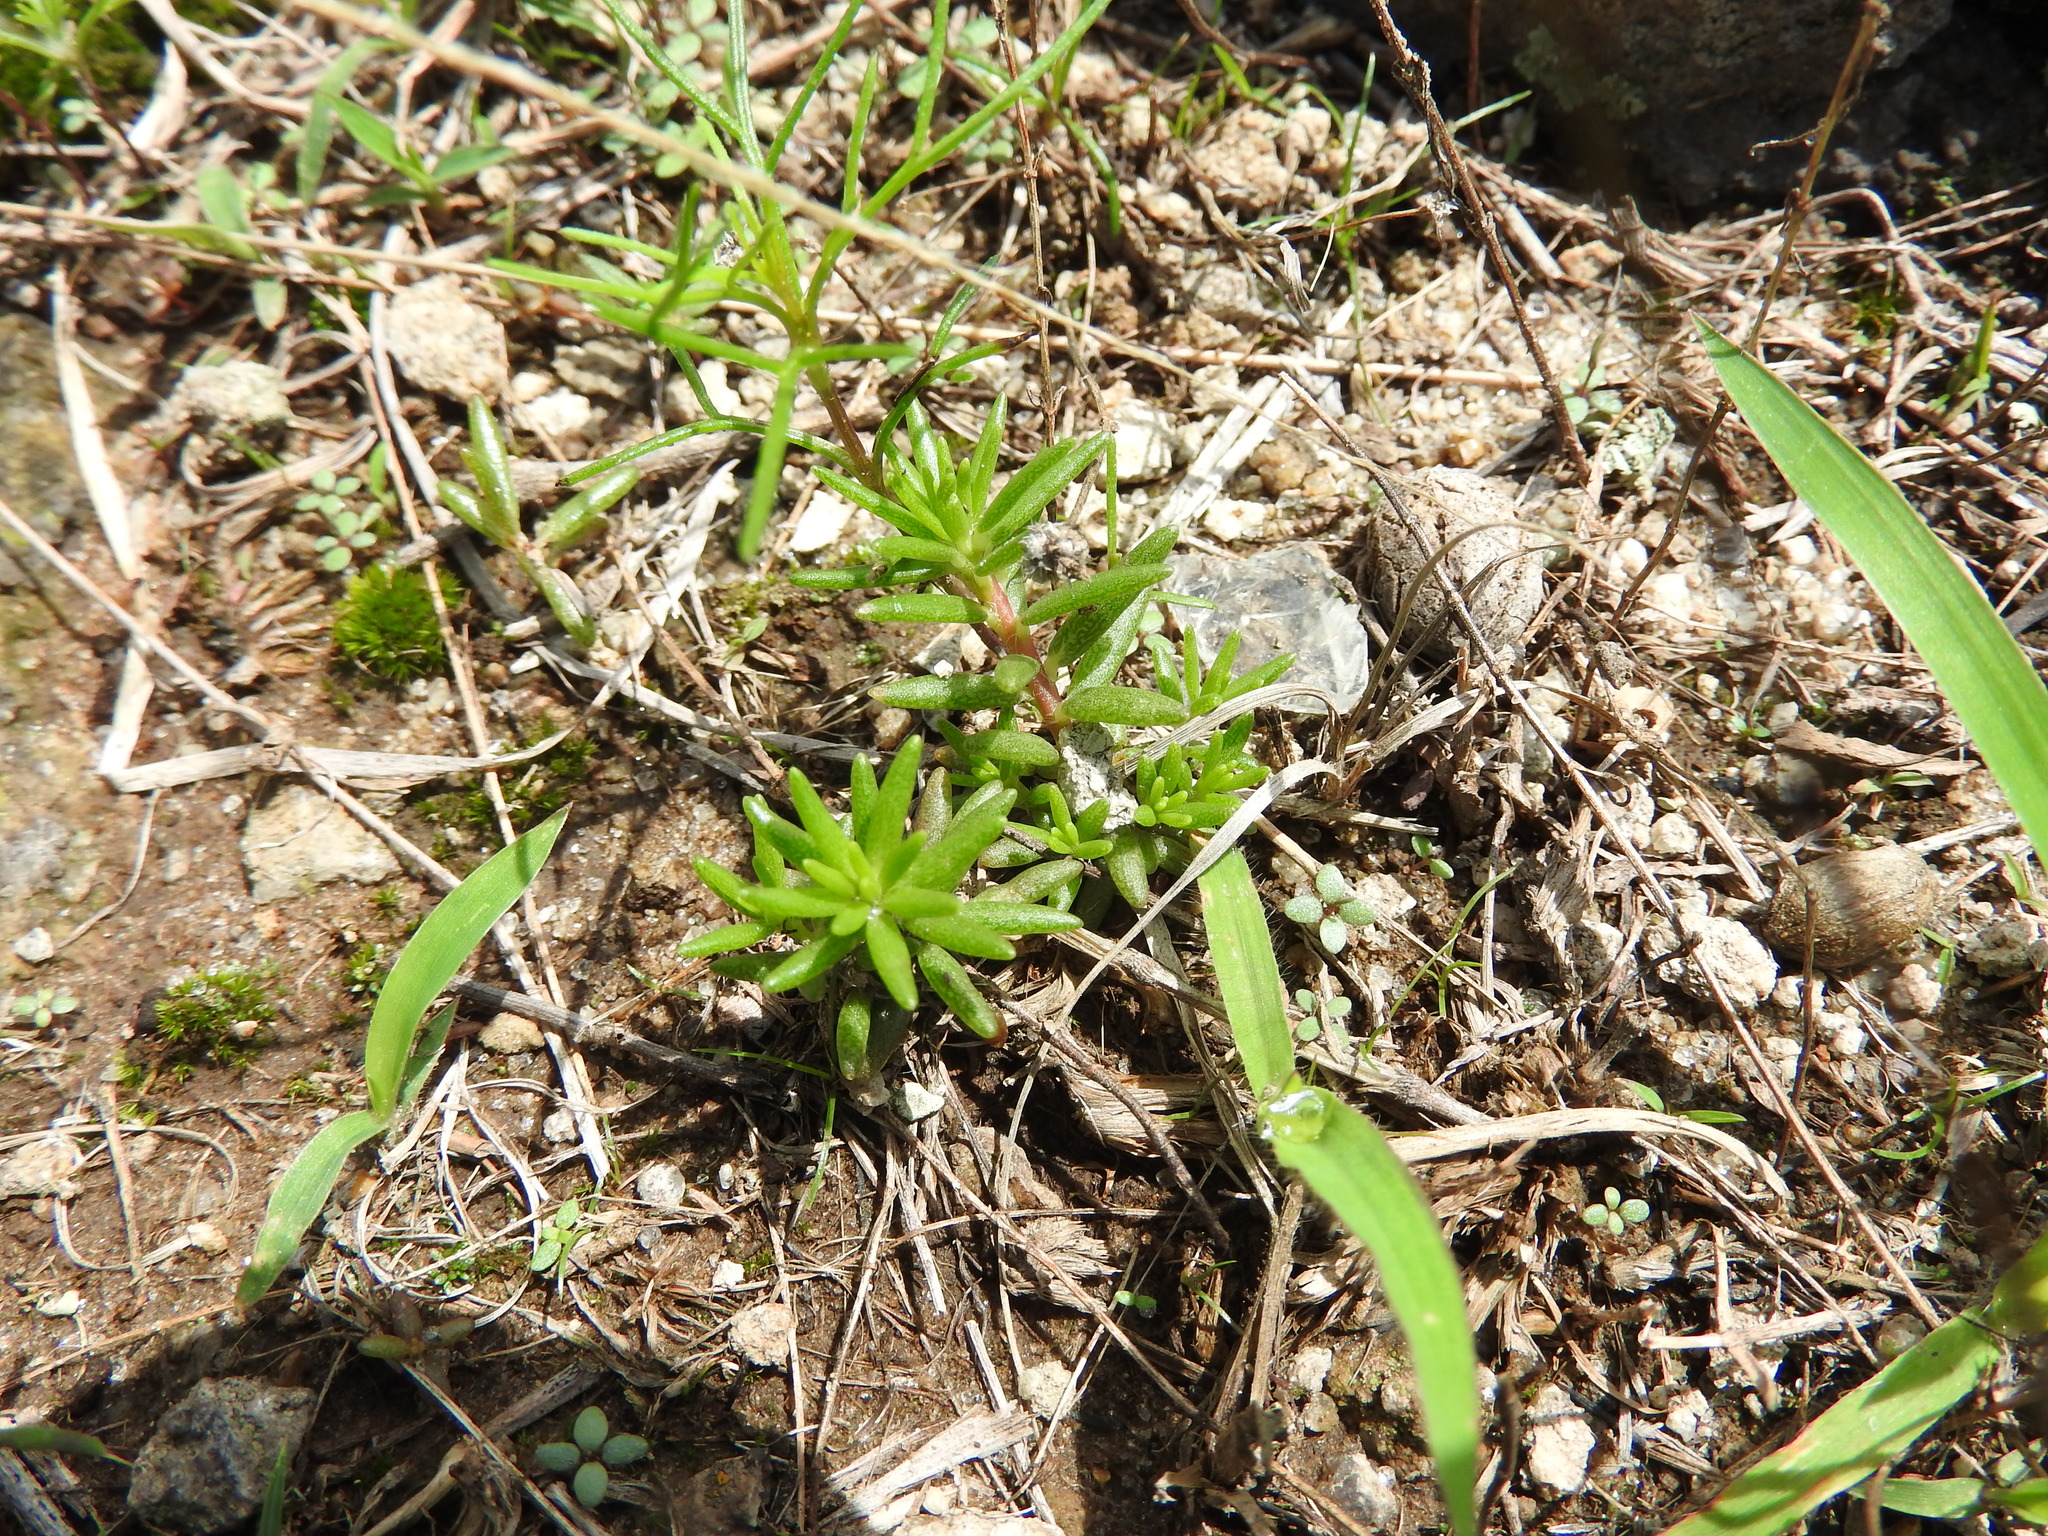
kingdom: Plantae
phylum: Tracheophyta
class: Magnoliopsida
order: Caryophyllales
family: Portulacaceae
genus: Portulaca
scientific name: Portulaca mexicana
